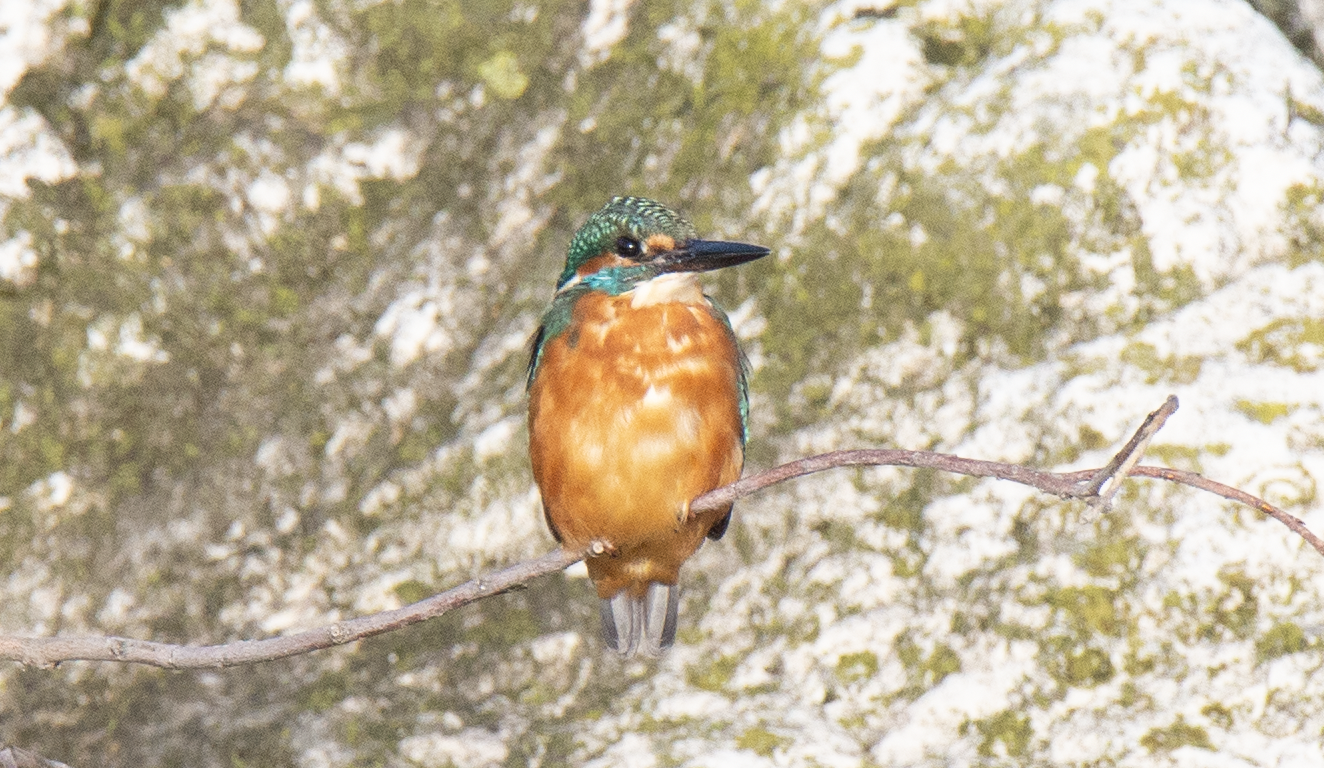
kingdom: Animalia
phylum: Chordata
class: Aves
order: Coraciiformes
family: Alcedinidae
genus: Alcedo
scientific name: Alcedo atthis
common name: Common kingfisher
